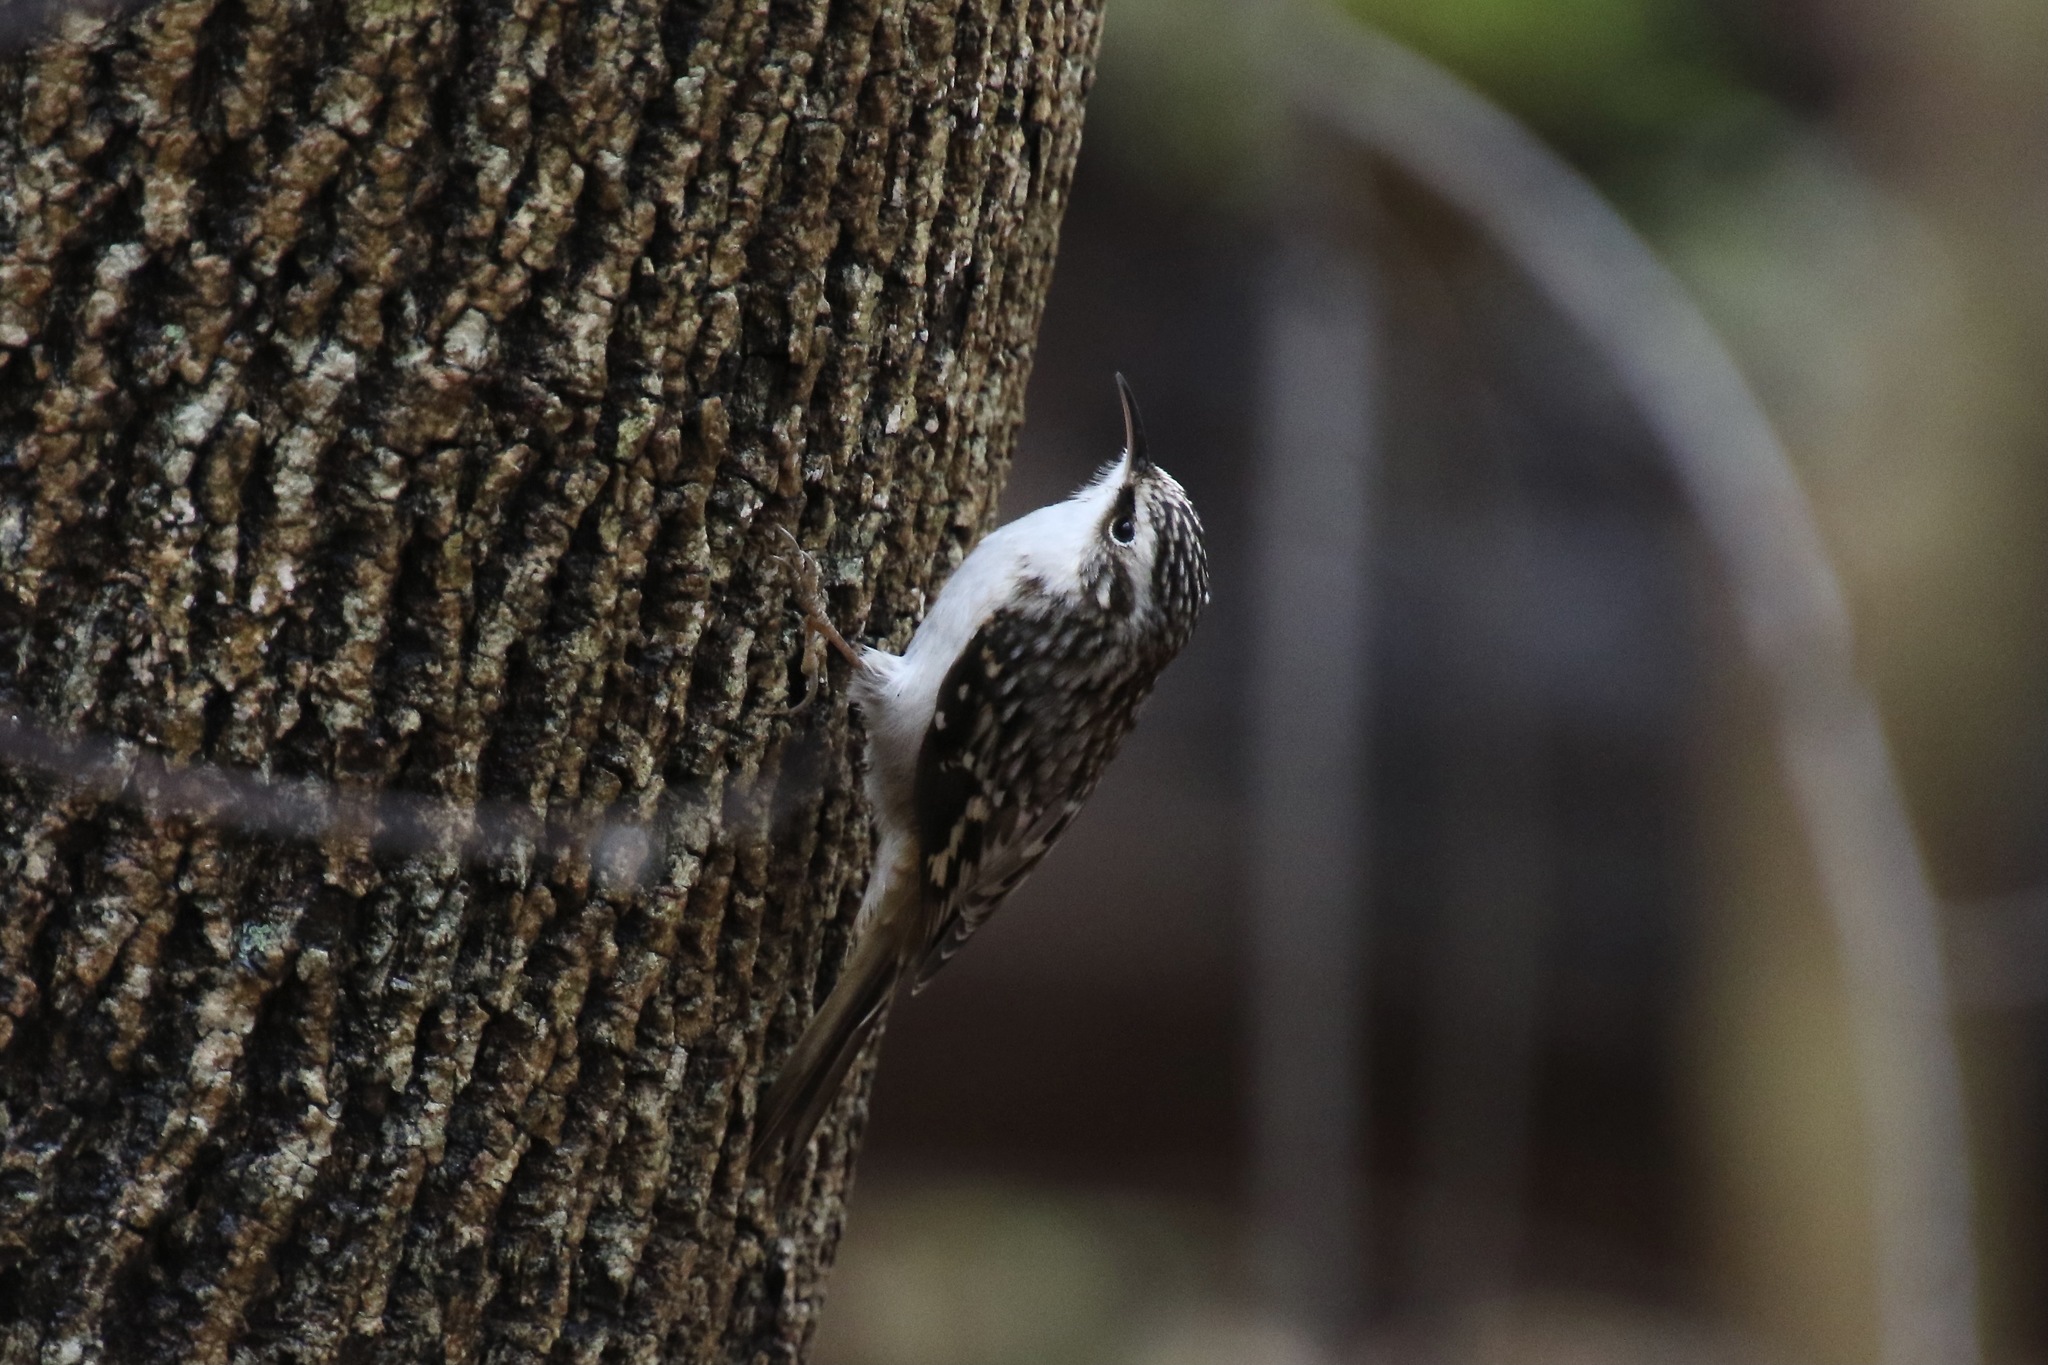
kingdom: Animalia
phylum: Chordata
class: Aves
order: Passeriformes
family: Certhiidae
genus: Certhia
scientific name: Certhia americana
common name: Brown creeper
